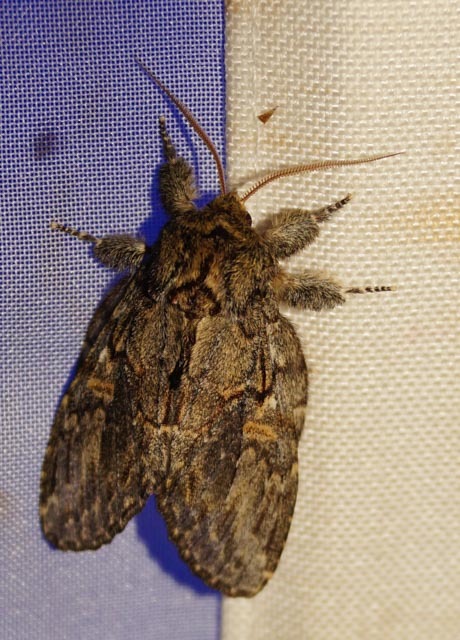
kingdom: Animalia
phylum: Arthropoda
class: Insecta
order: Lepidoptera
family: Notodontidae
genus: Peridea
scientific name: Peridea anceps
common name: Great prominent
